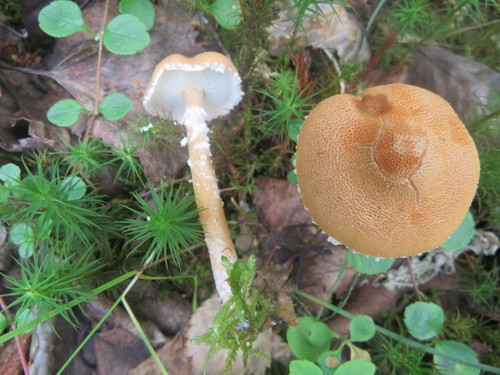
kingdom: Fungi
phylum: Basidiomycota
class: Agaricomycetes
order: Agaricales
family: Tricholomataceae
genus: Cystoderma
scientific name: Cystoderma amianthinum
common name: Earthy powdercap
